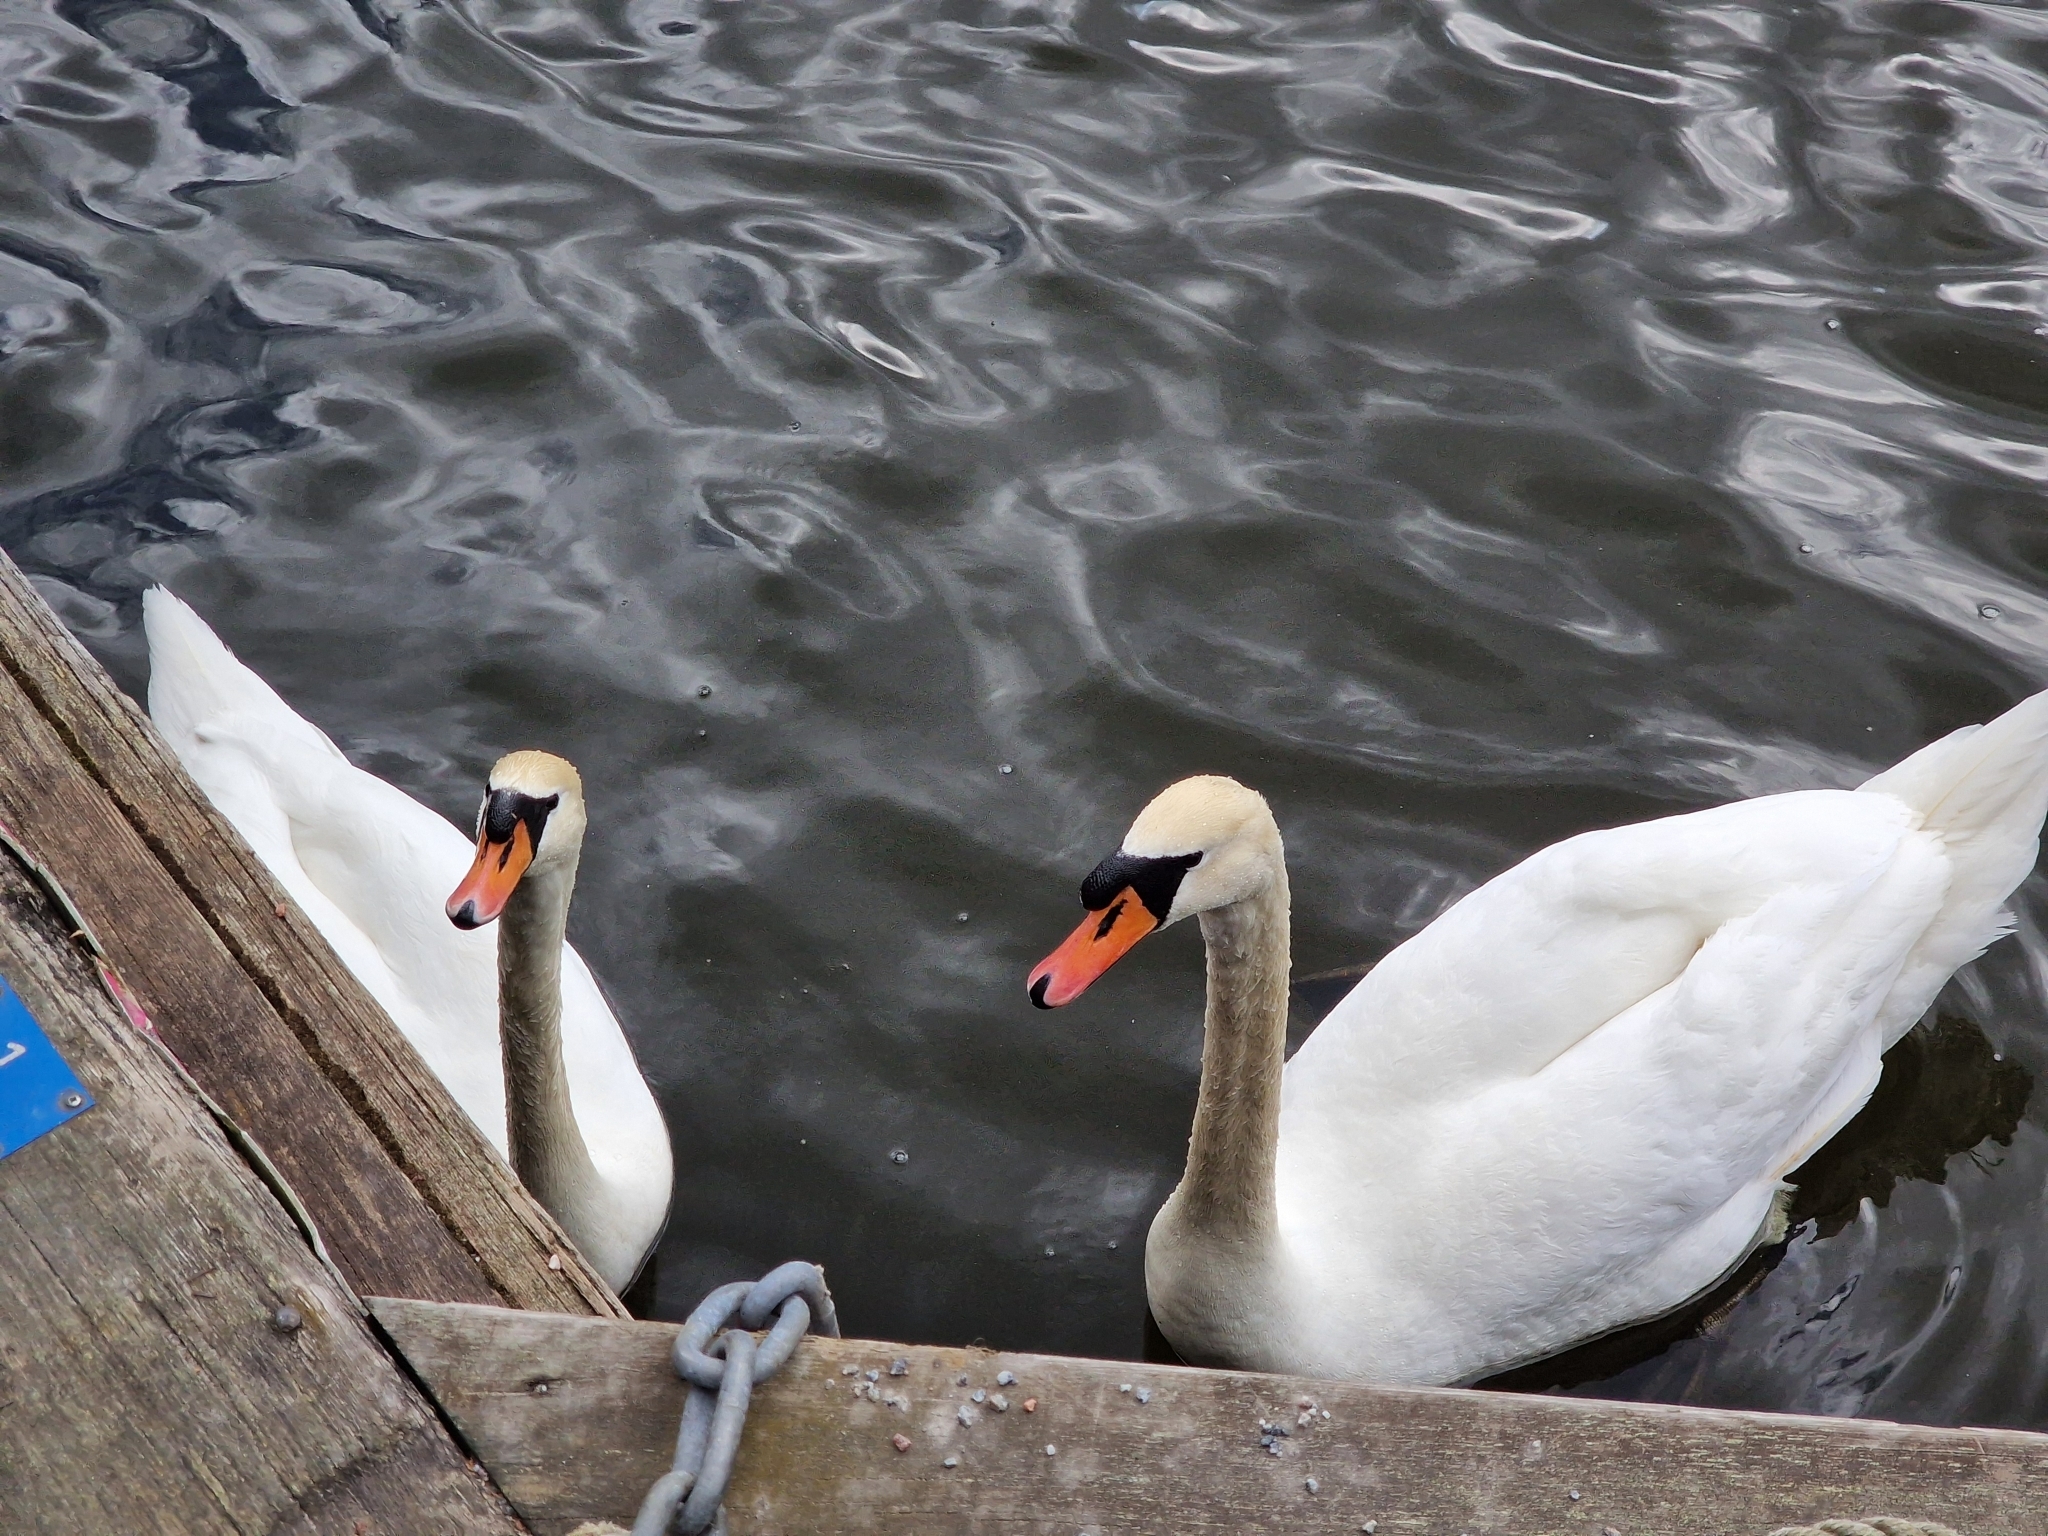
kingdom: Animalia
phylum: Chordata
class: Aves
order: Anseriformes
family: Anatidae
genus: Cygnus
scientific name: Cygnus olor
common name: Mute swan
